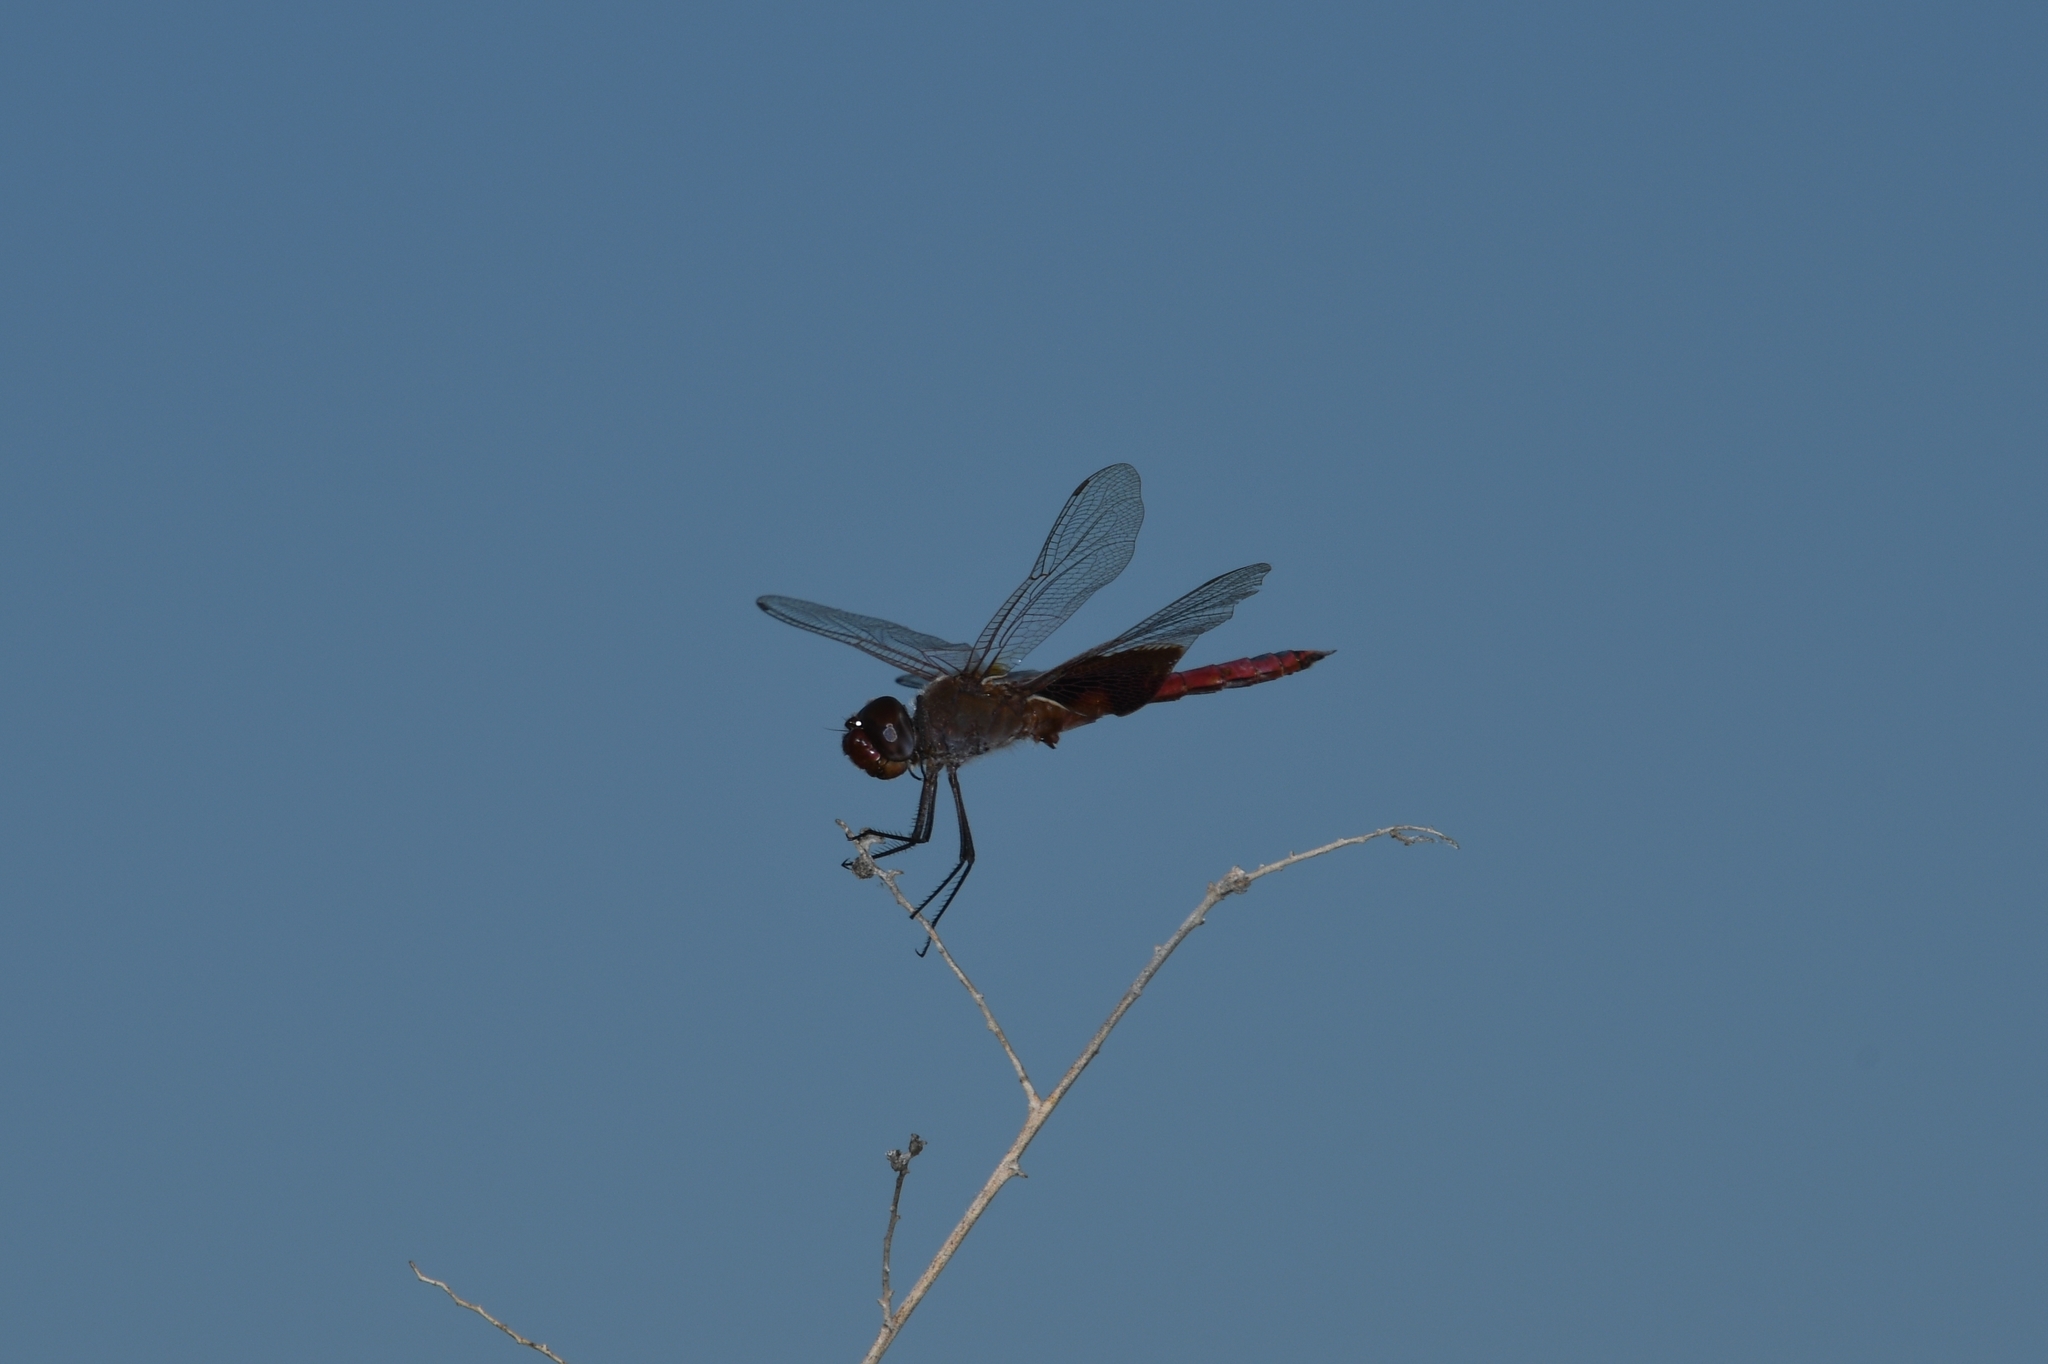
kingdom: Animalia
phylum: Arthropoda
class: Insecta
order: Odonata
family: Libellulidae
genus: Tramea
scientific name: Tramea onusta
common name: Red saddlebags
